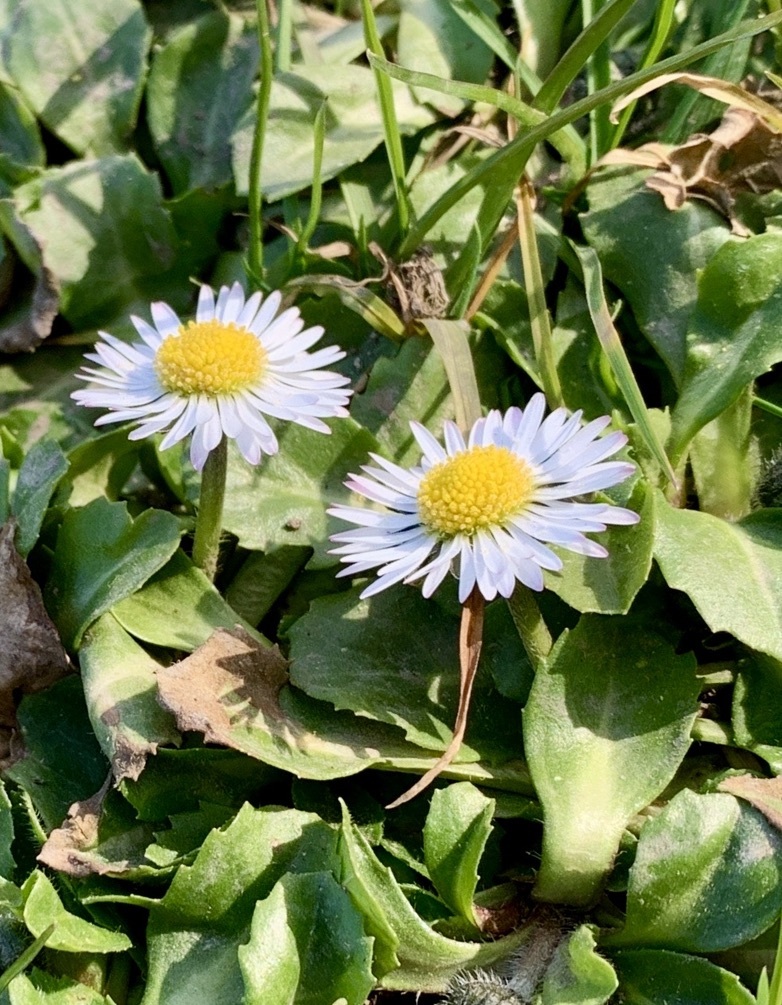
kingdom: Plantae
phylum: Tracheophyta
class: Magnoliopsida
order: Asterales
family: Asteraceae
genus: Bellis
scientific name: Bellis perennis
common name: Lawndaisy
